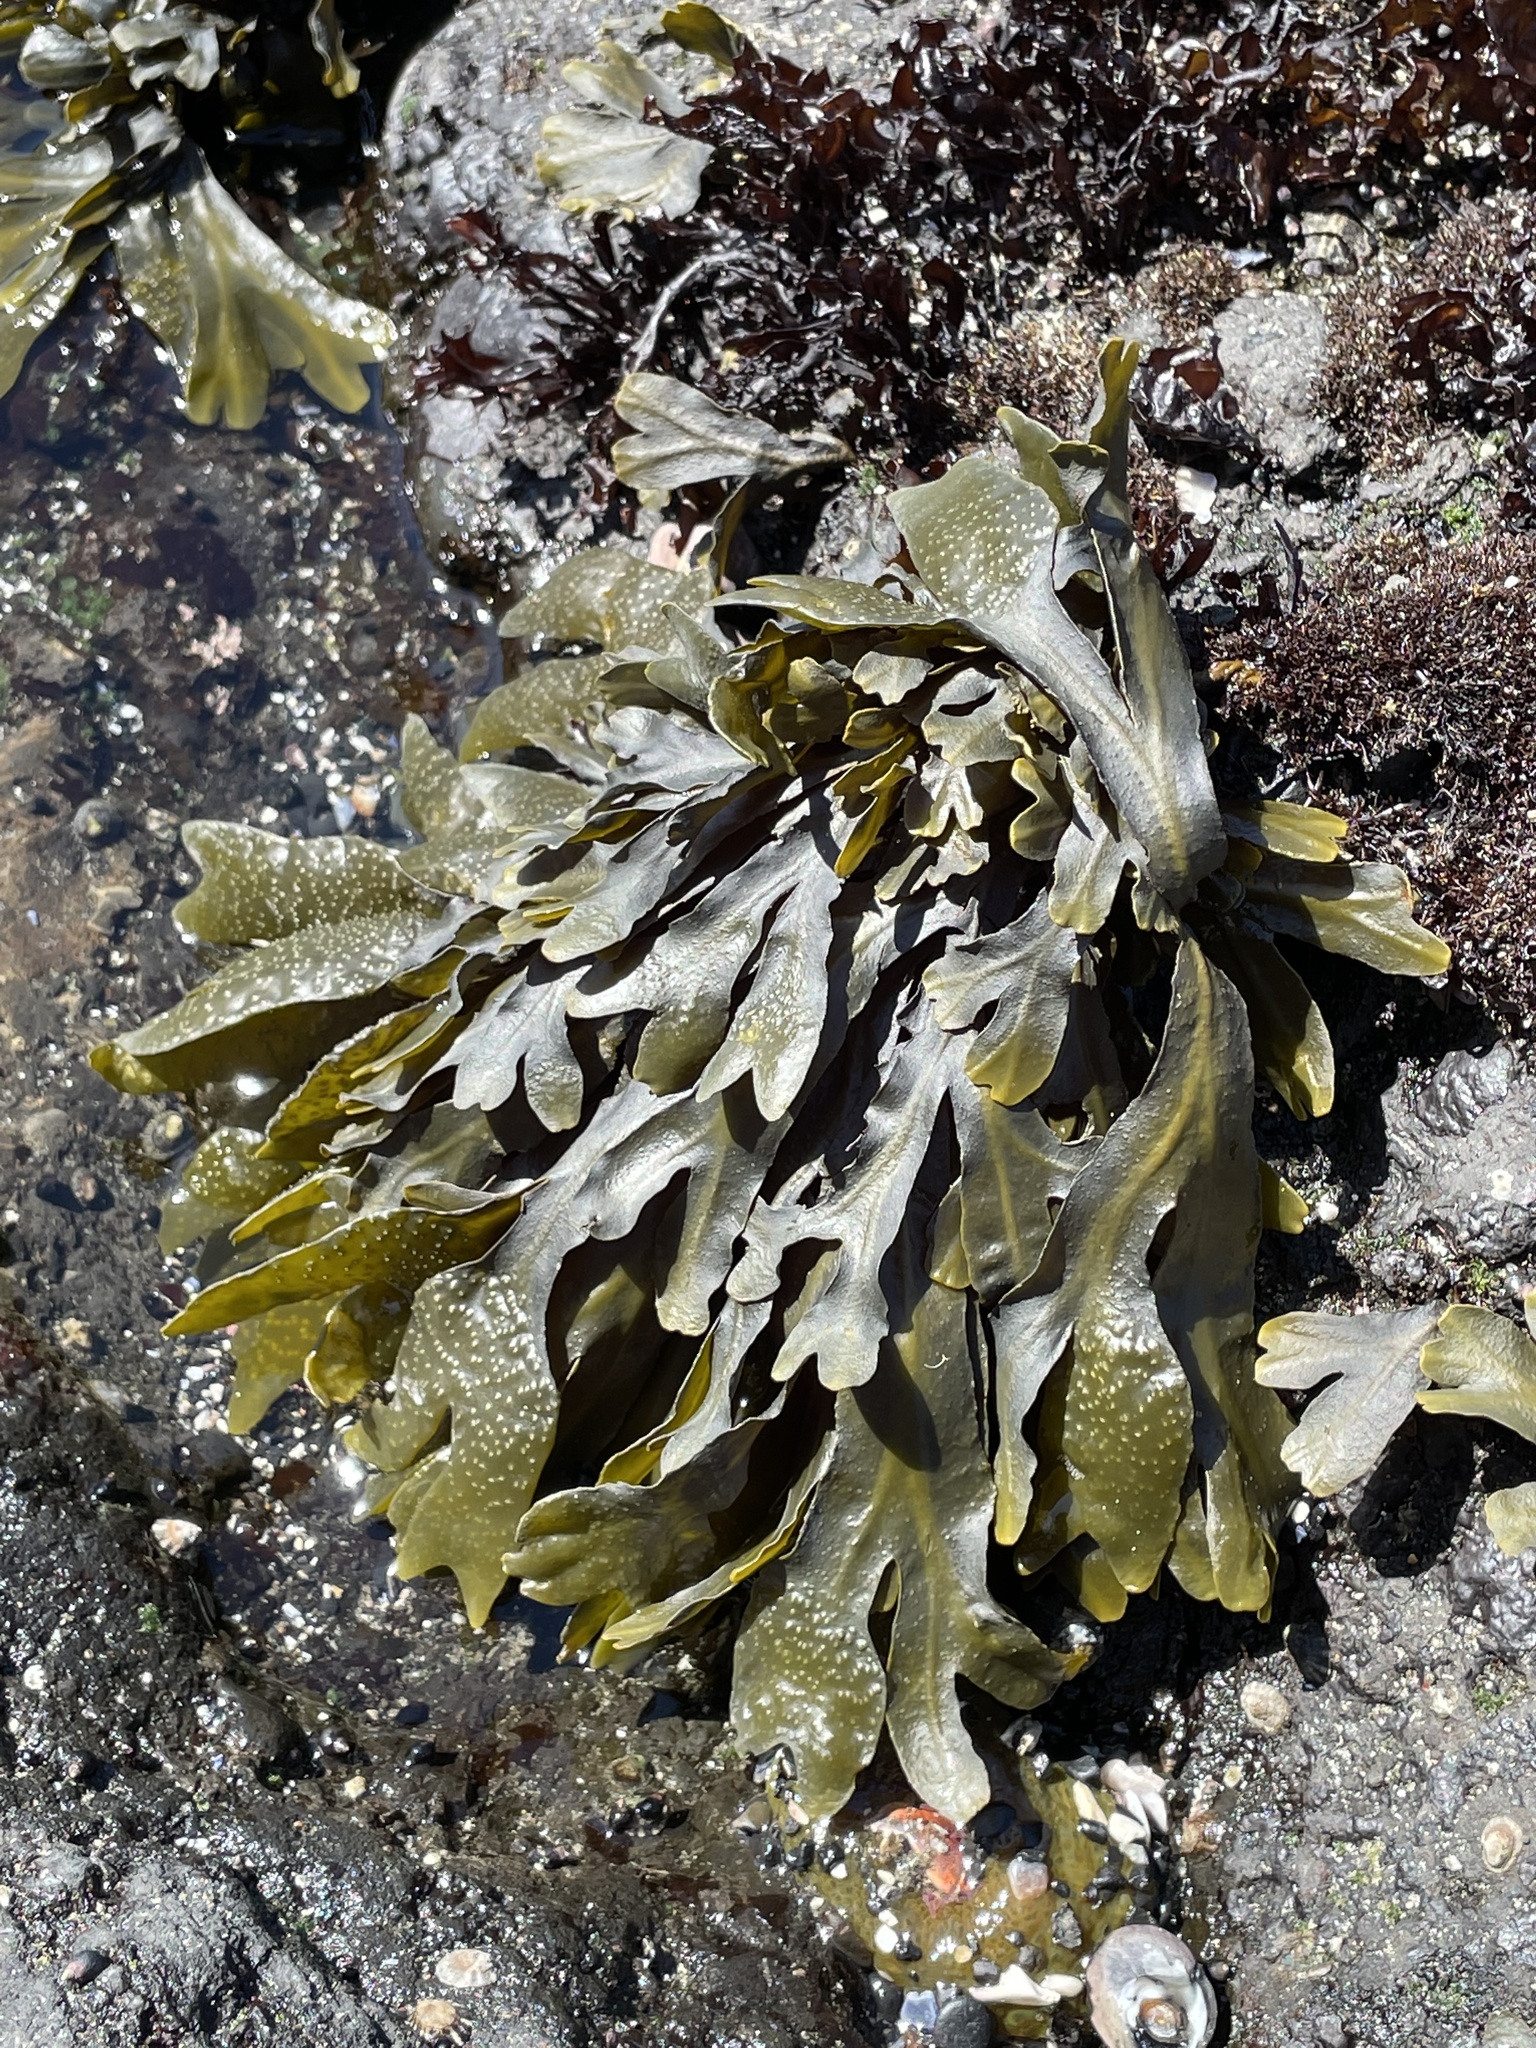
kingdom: Chromista
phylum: Ochrophyta
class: Phaeophyceae
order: Fucales
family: Fucaceae
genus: Fucus
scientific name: Fucus distichus
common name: Rockweed
